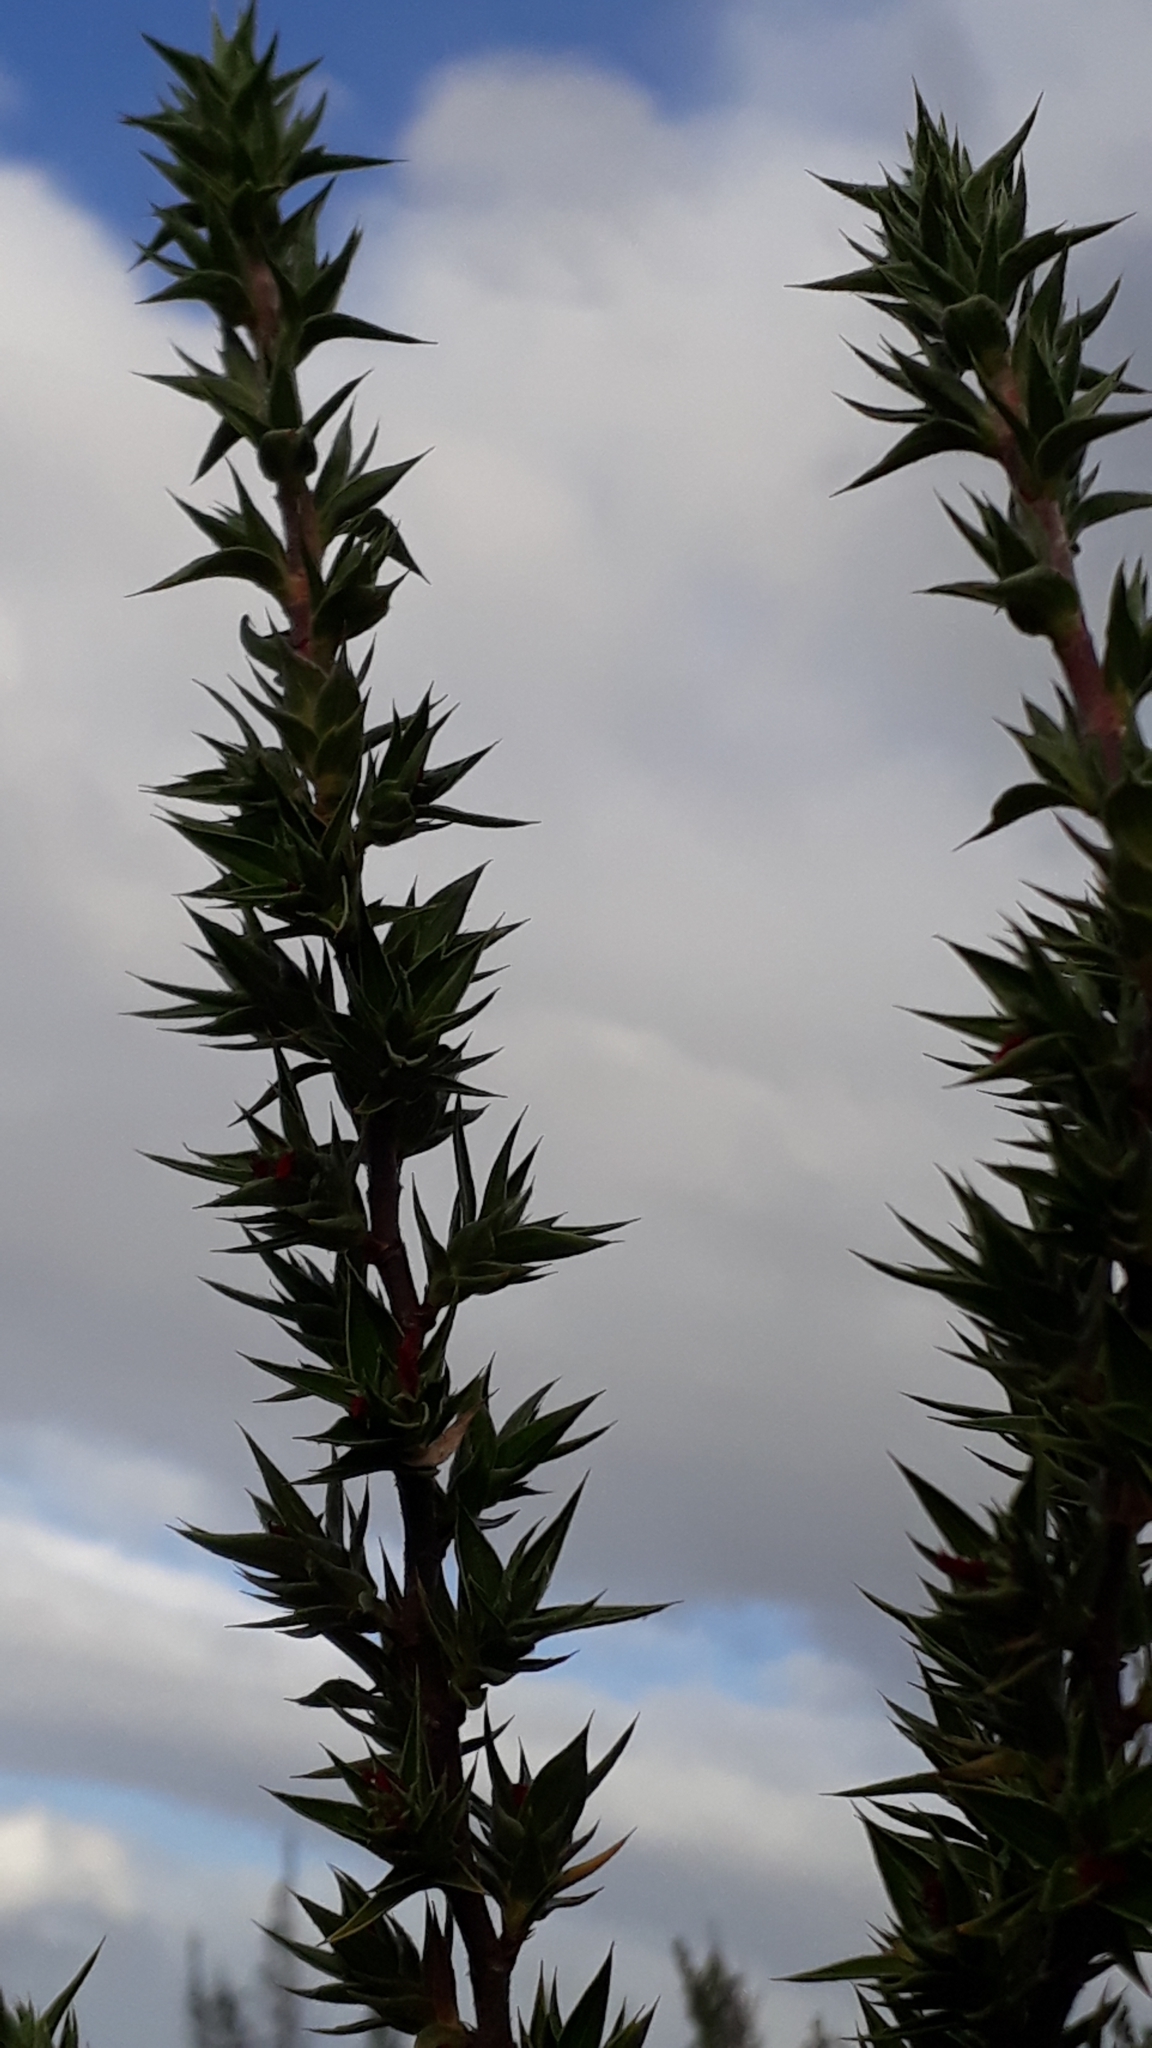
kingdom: Plantae
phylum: Tracheophyta
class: Magnoliopsida
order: Rosales
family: Rosaceae
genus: Cliffortia
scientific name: Cliffortia ruscifolia
